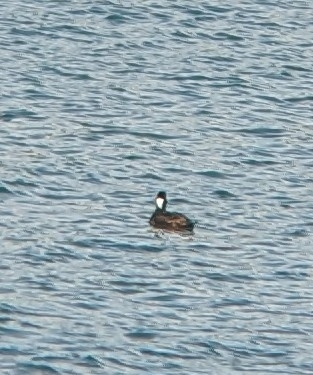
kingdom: Animalia
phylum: Chordata
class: Aves
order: Anseriformes
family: Anatidae
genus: Melanitta
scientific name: Melanitta perspicillata
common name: Surf scoter
